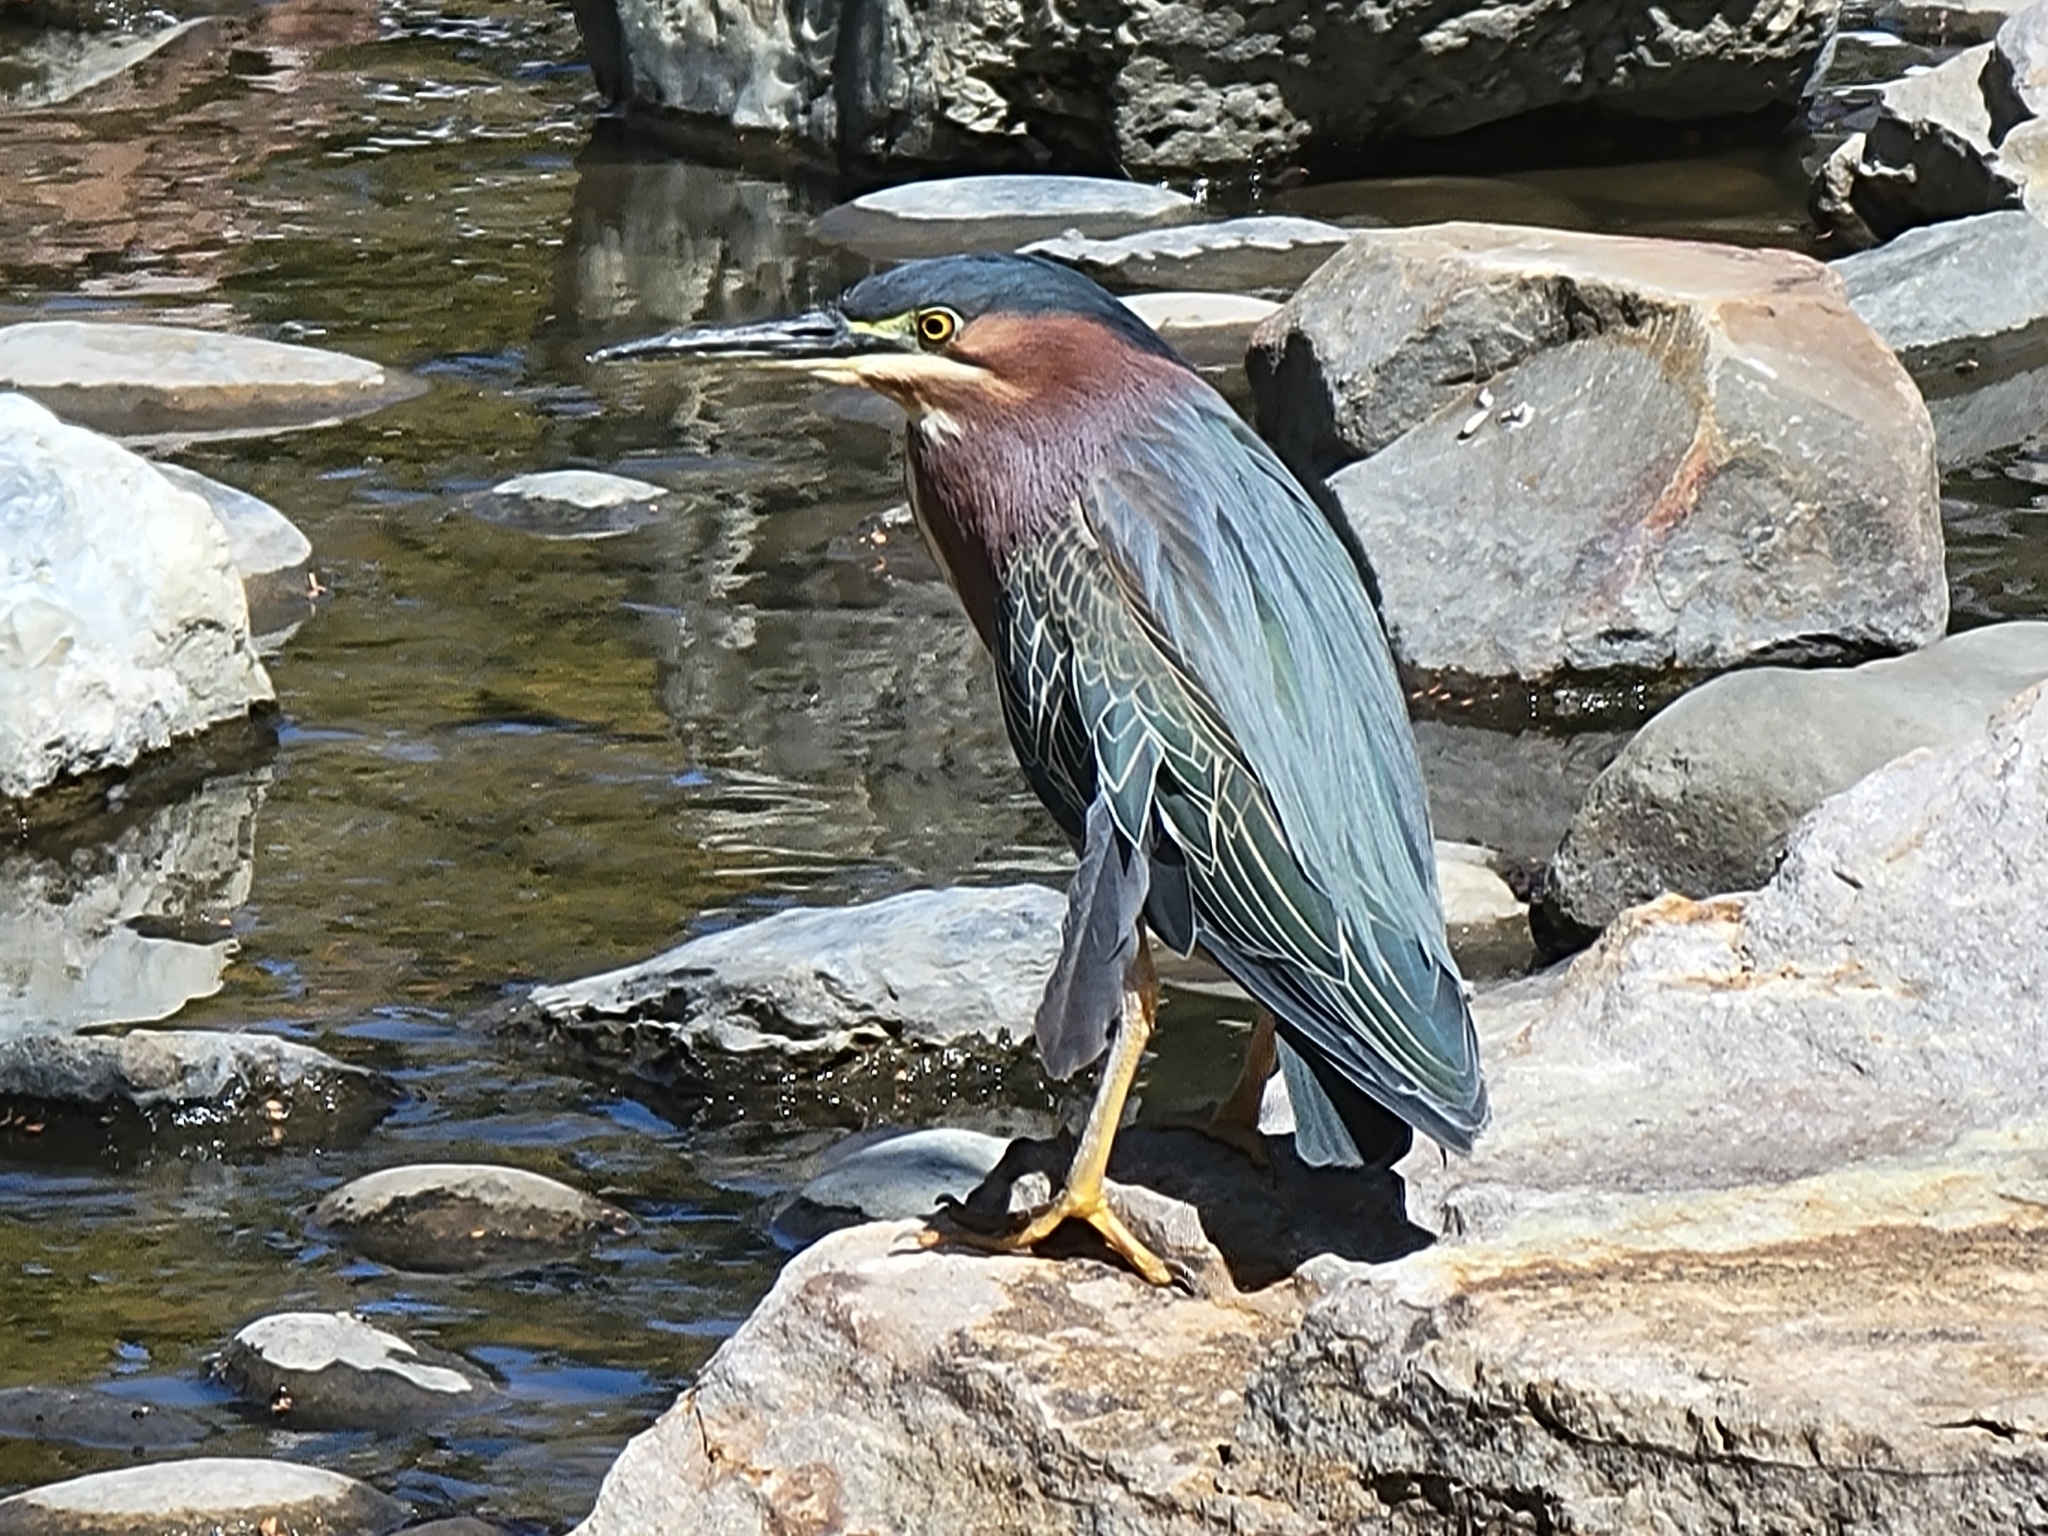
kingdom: Animalia
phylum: Chordata
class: Aves
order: Pelecaniformes
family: Ardeidae
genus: Butorides
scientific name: Butorides virescens
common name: Green heron
